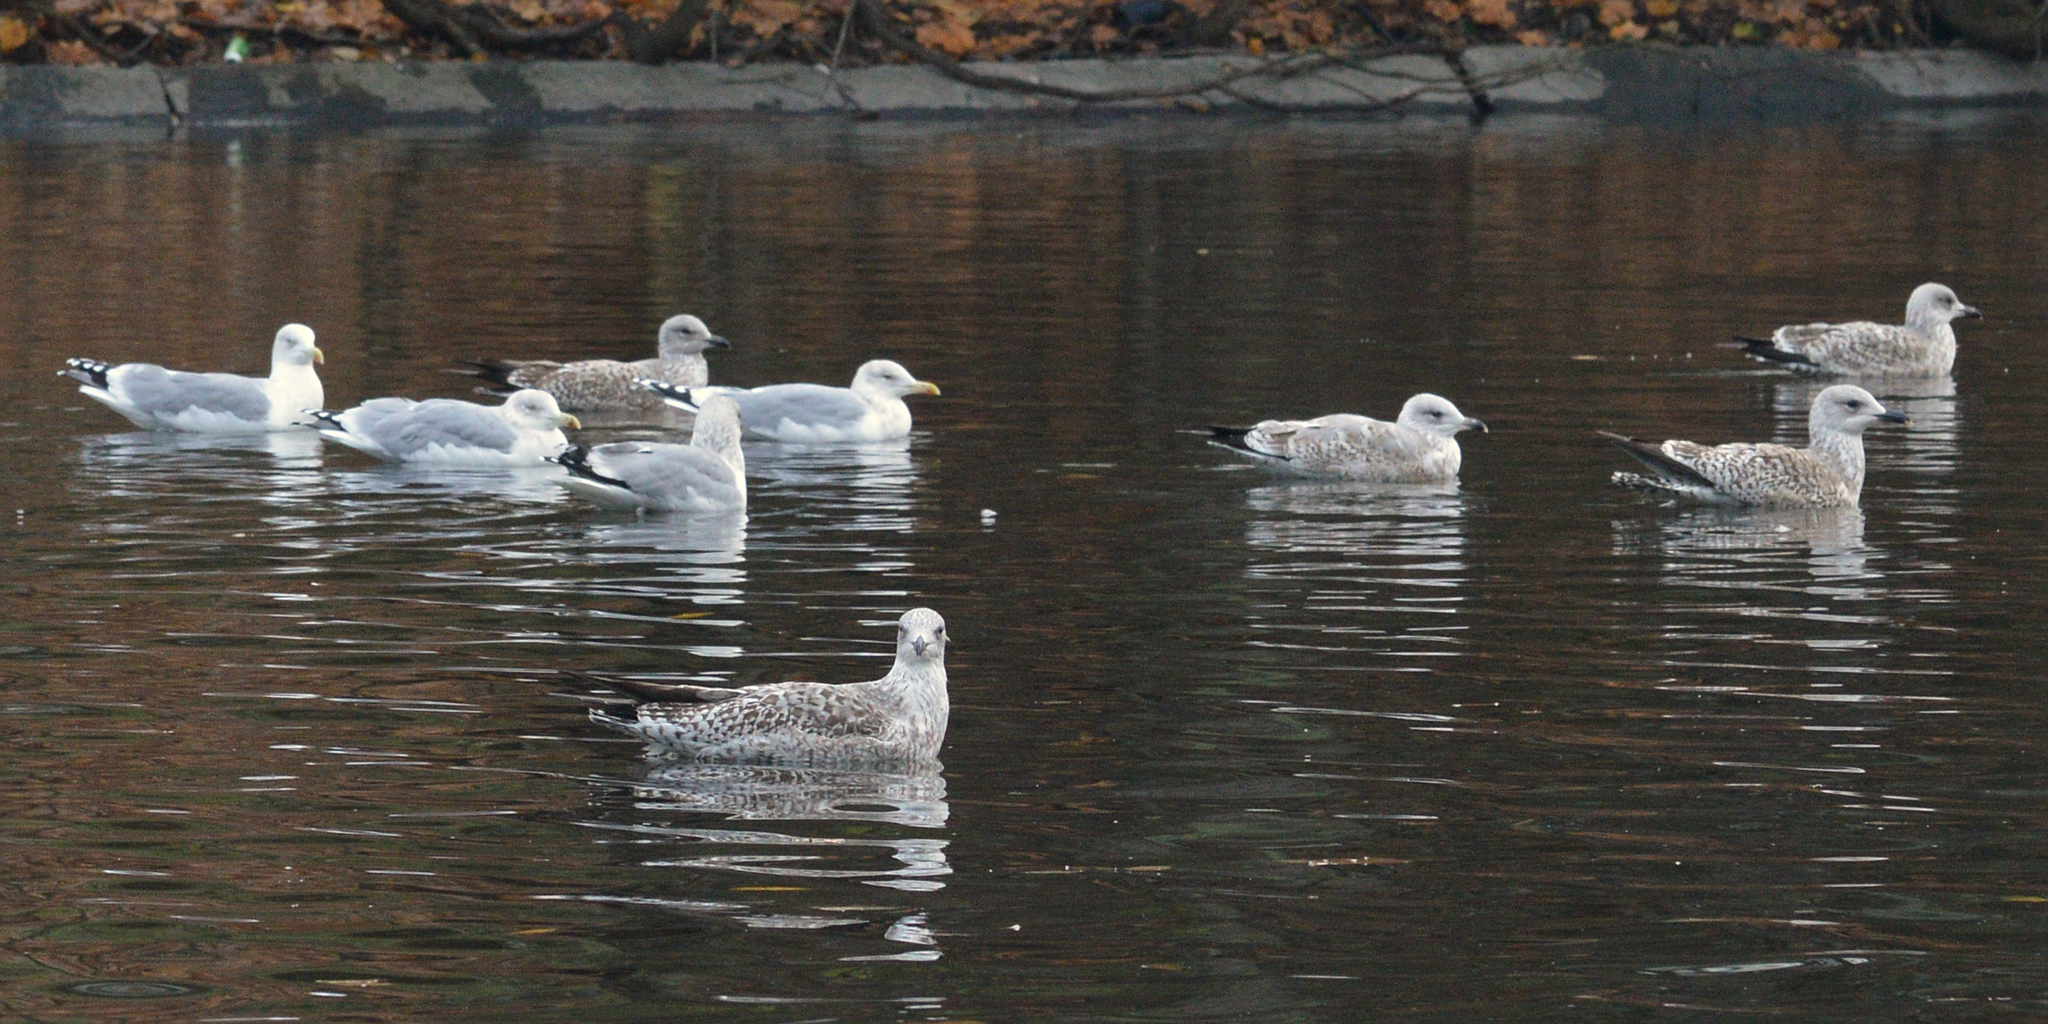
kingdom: Animalia
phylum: Chordata
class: Aves
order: Charadriiformes
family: Laridae
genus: Larus
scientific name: Larus argentatus
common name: Herring gull
